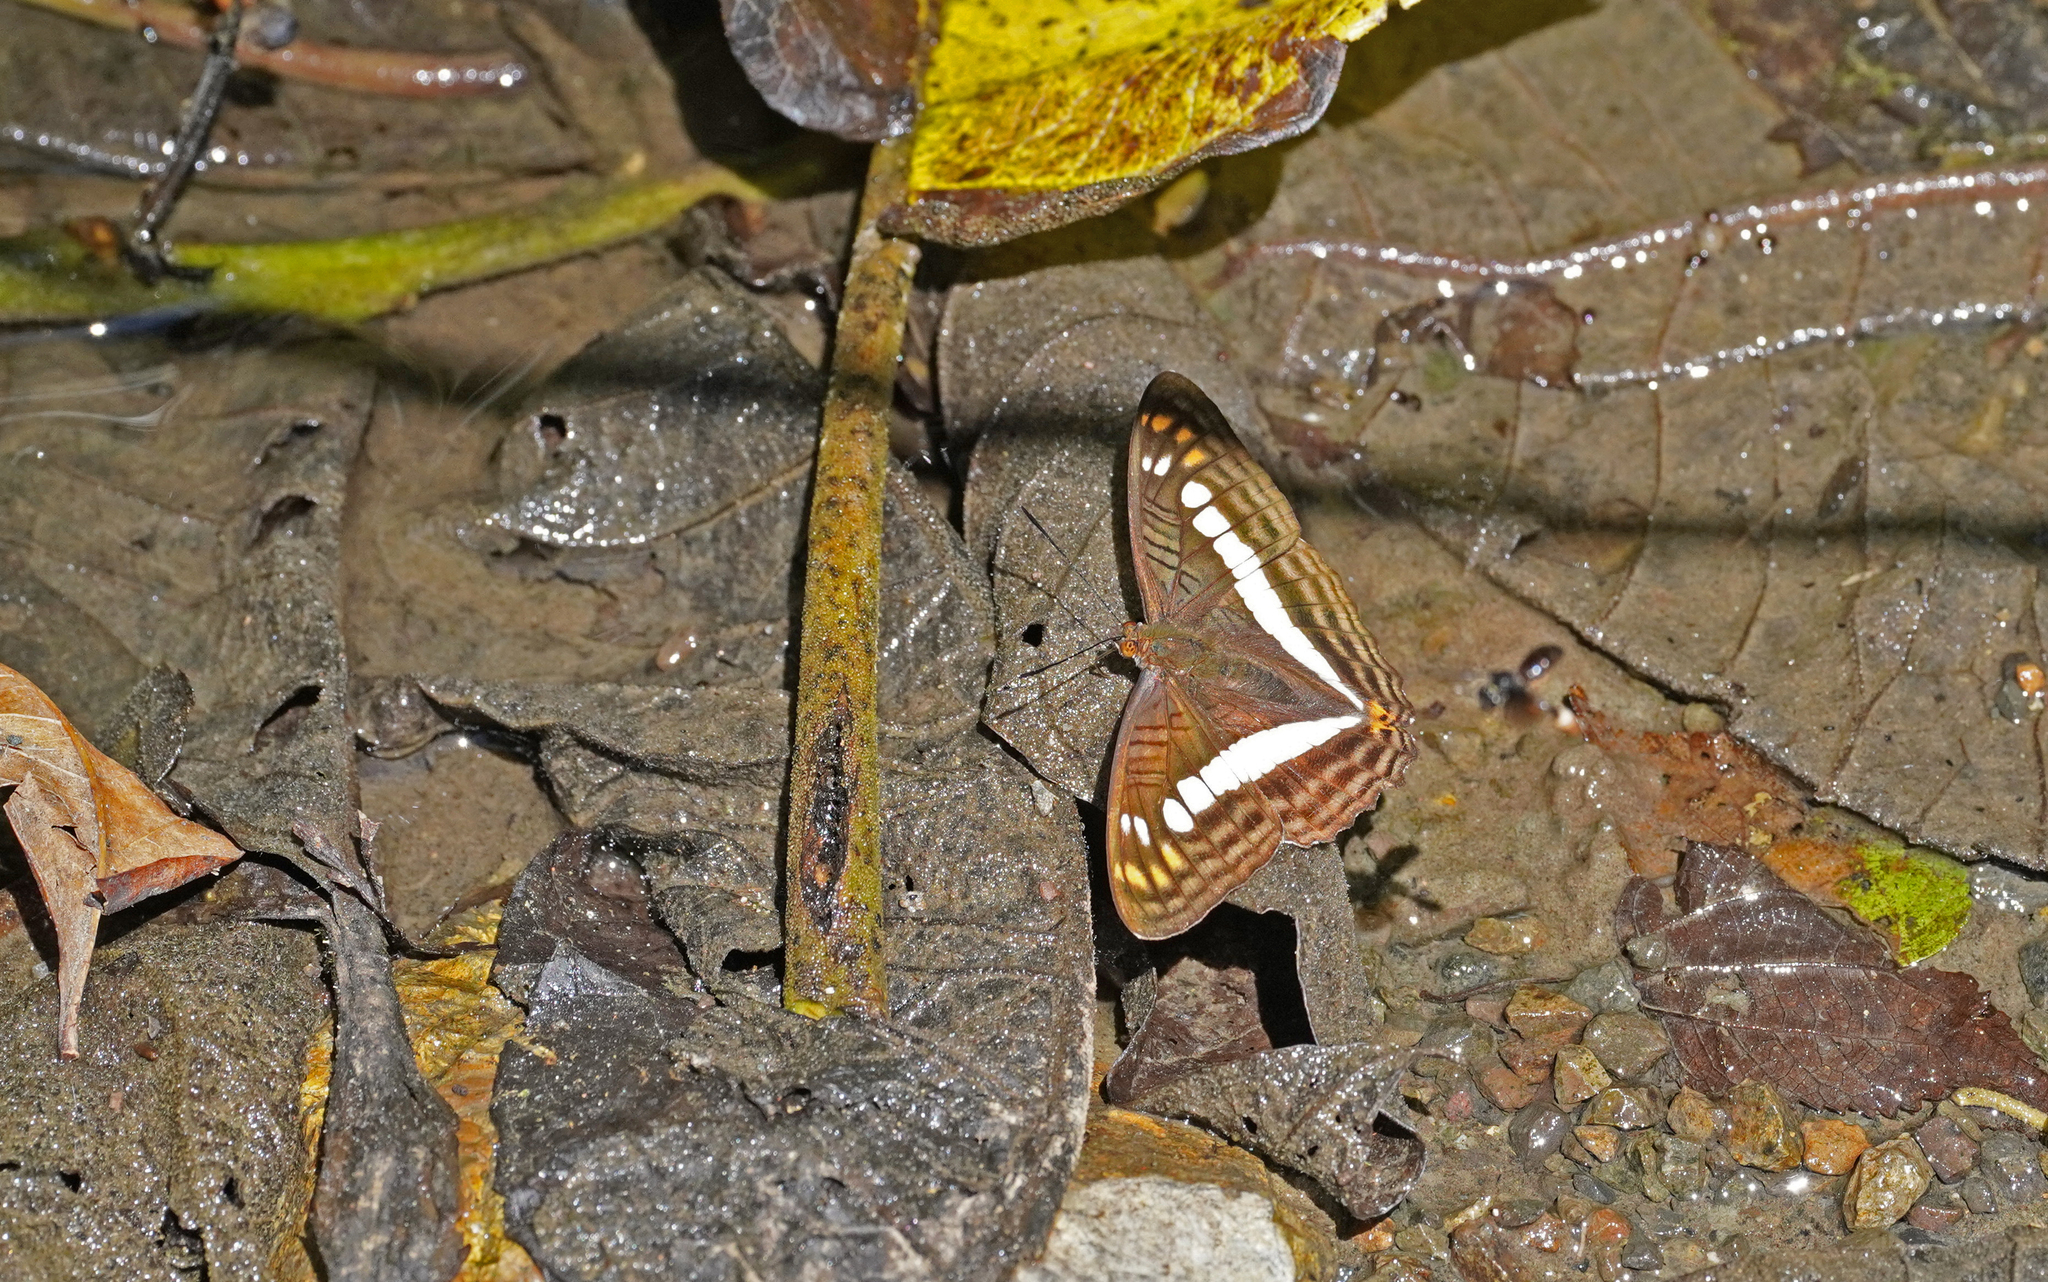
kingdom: Animalia
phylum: Arthropoda
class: Insecta
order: Lepidoptera
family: Nymphalidae
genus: Limenitis
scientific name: Limenitis alala
